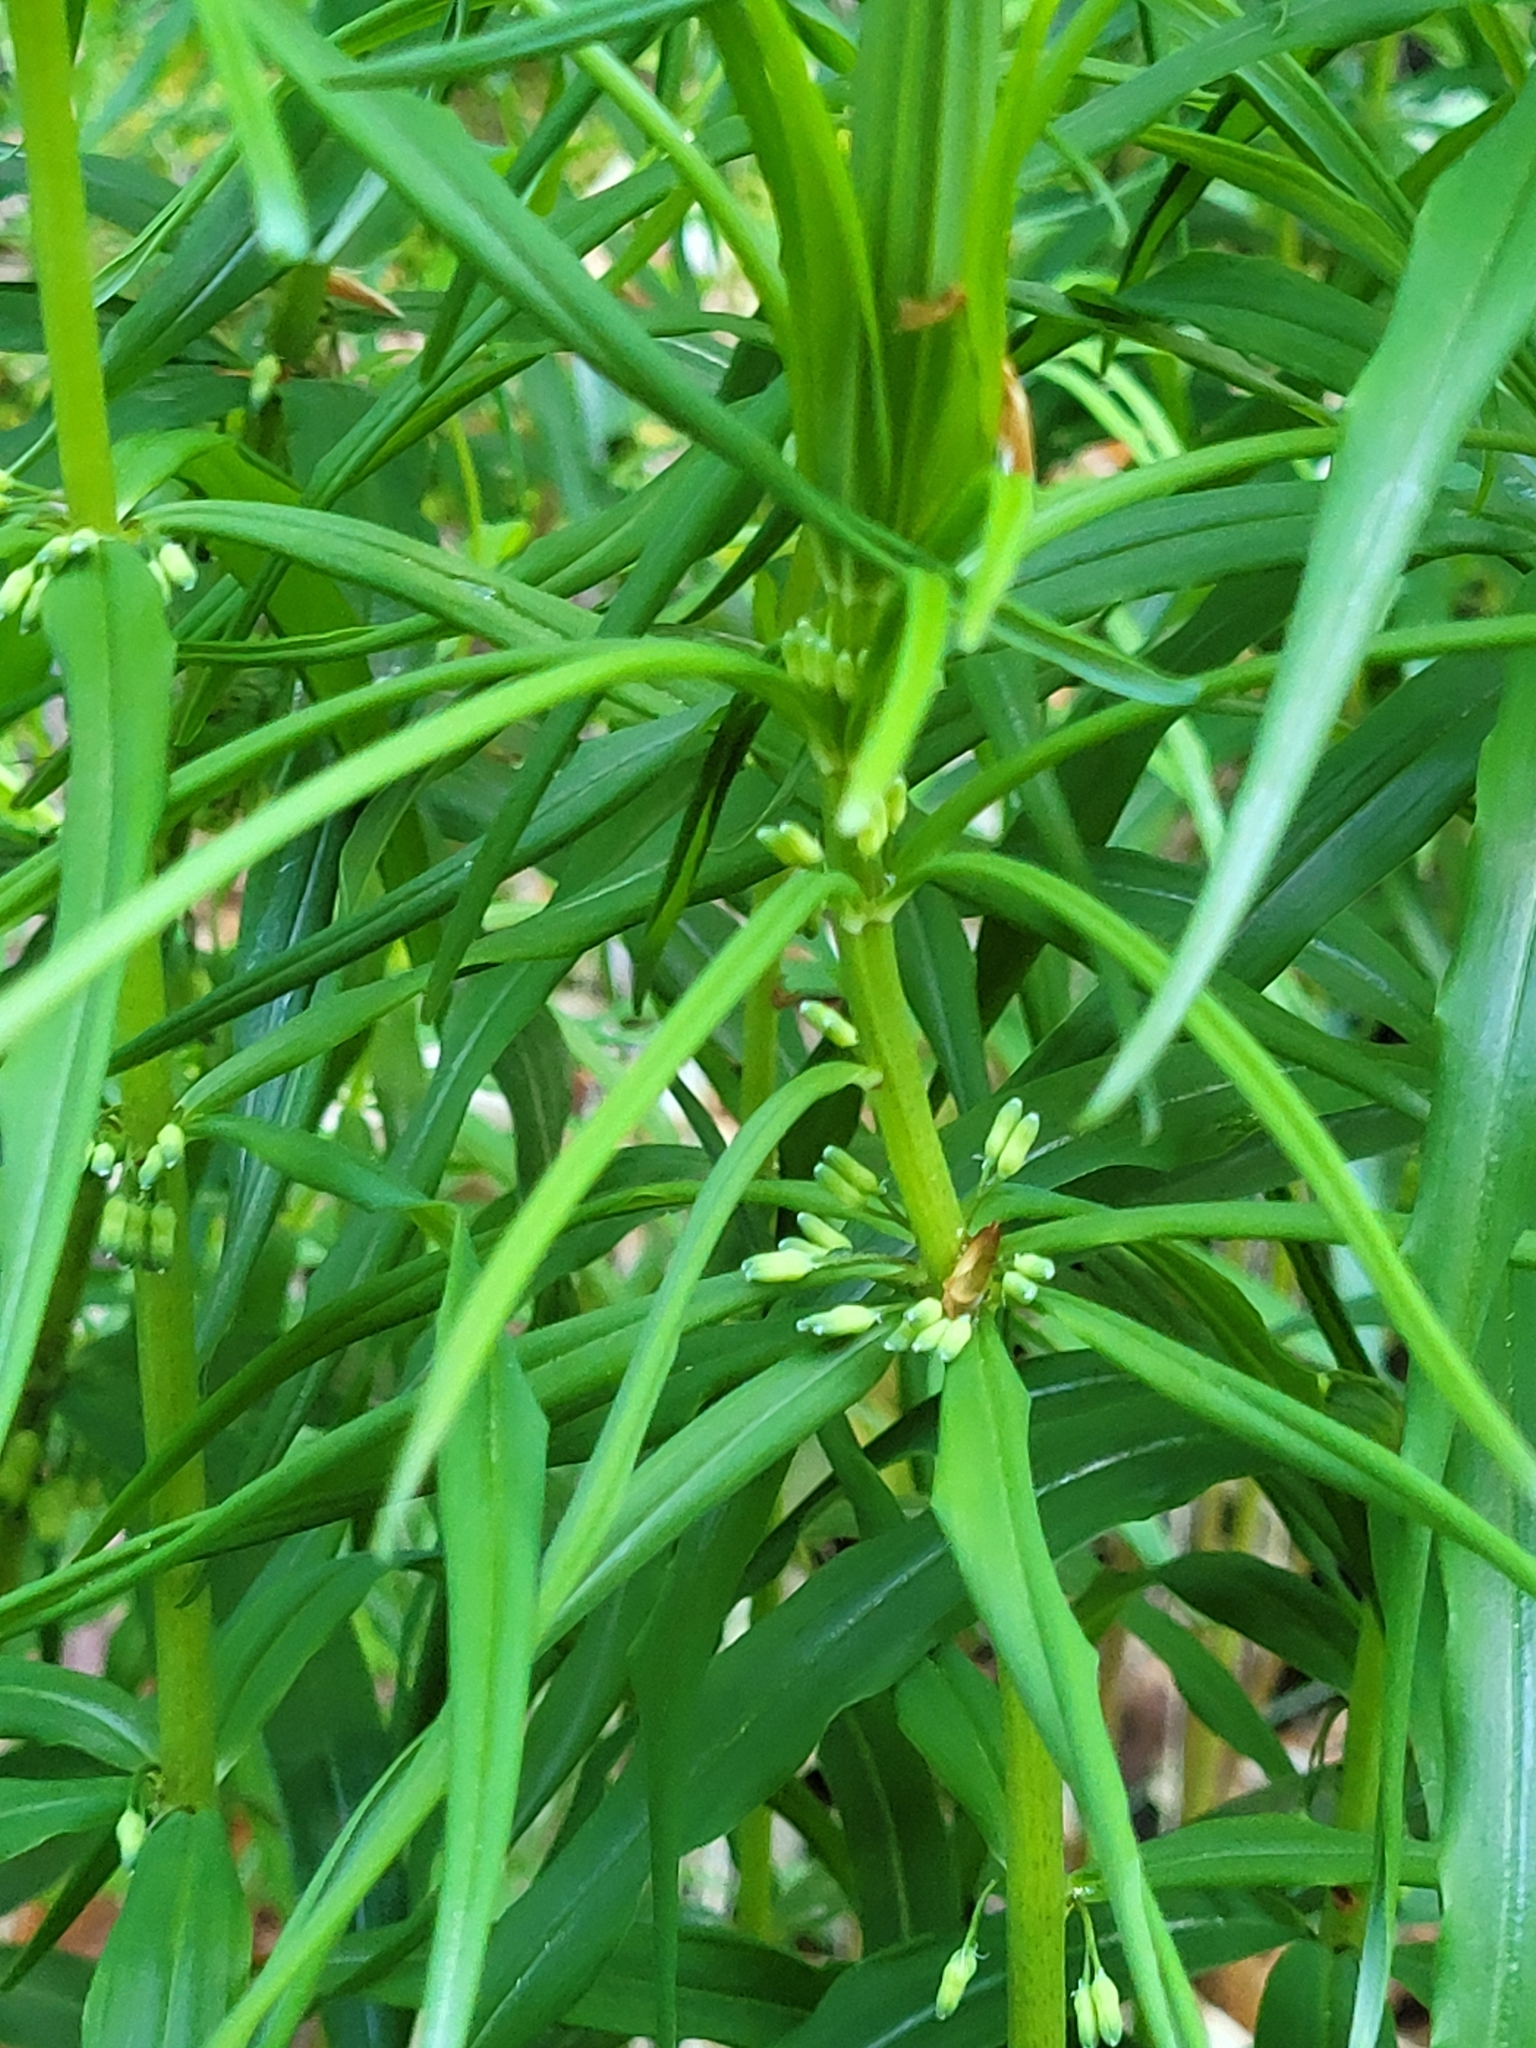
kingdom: Plantae
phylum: Tracheophyta
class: Liliopsida
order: Asparagales
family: Asparagaceae
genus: Polygonatum
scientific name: Polygonatum verticillatum
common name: Whorled solomon's-seal
